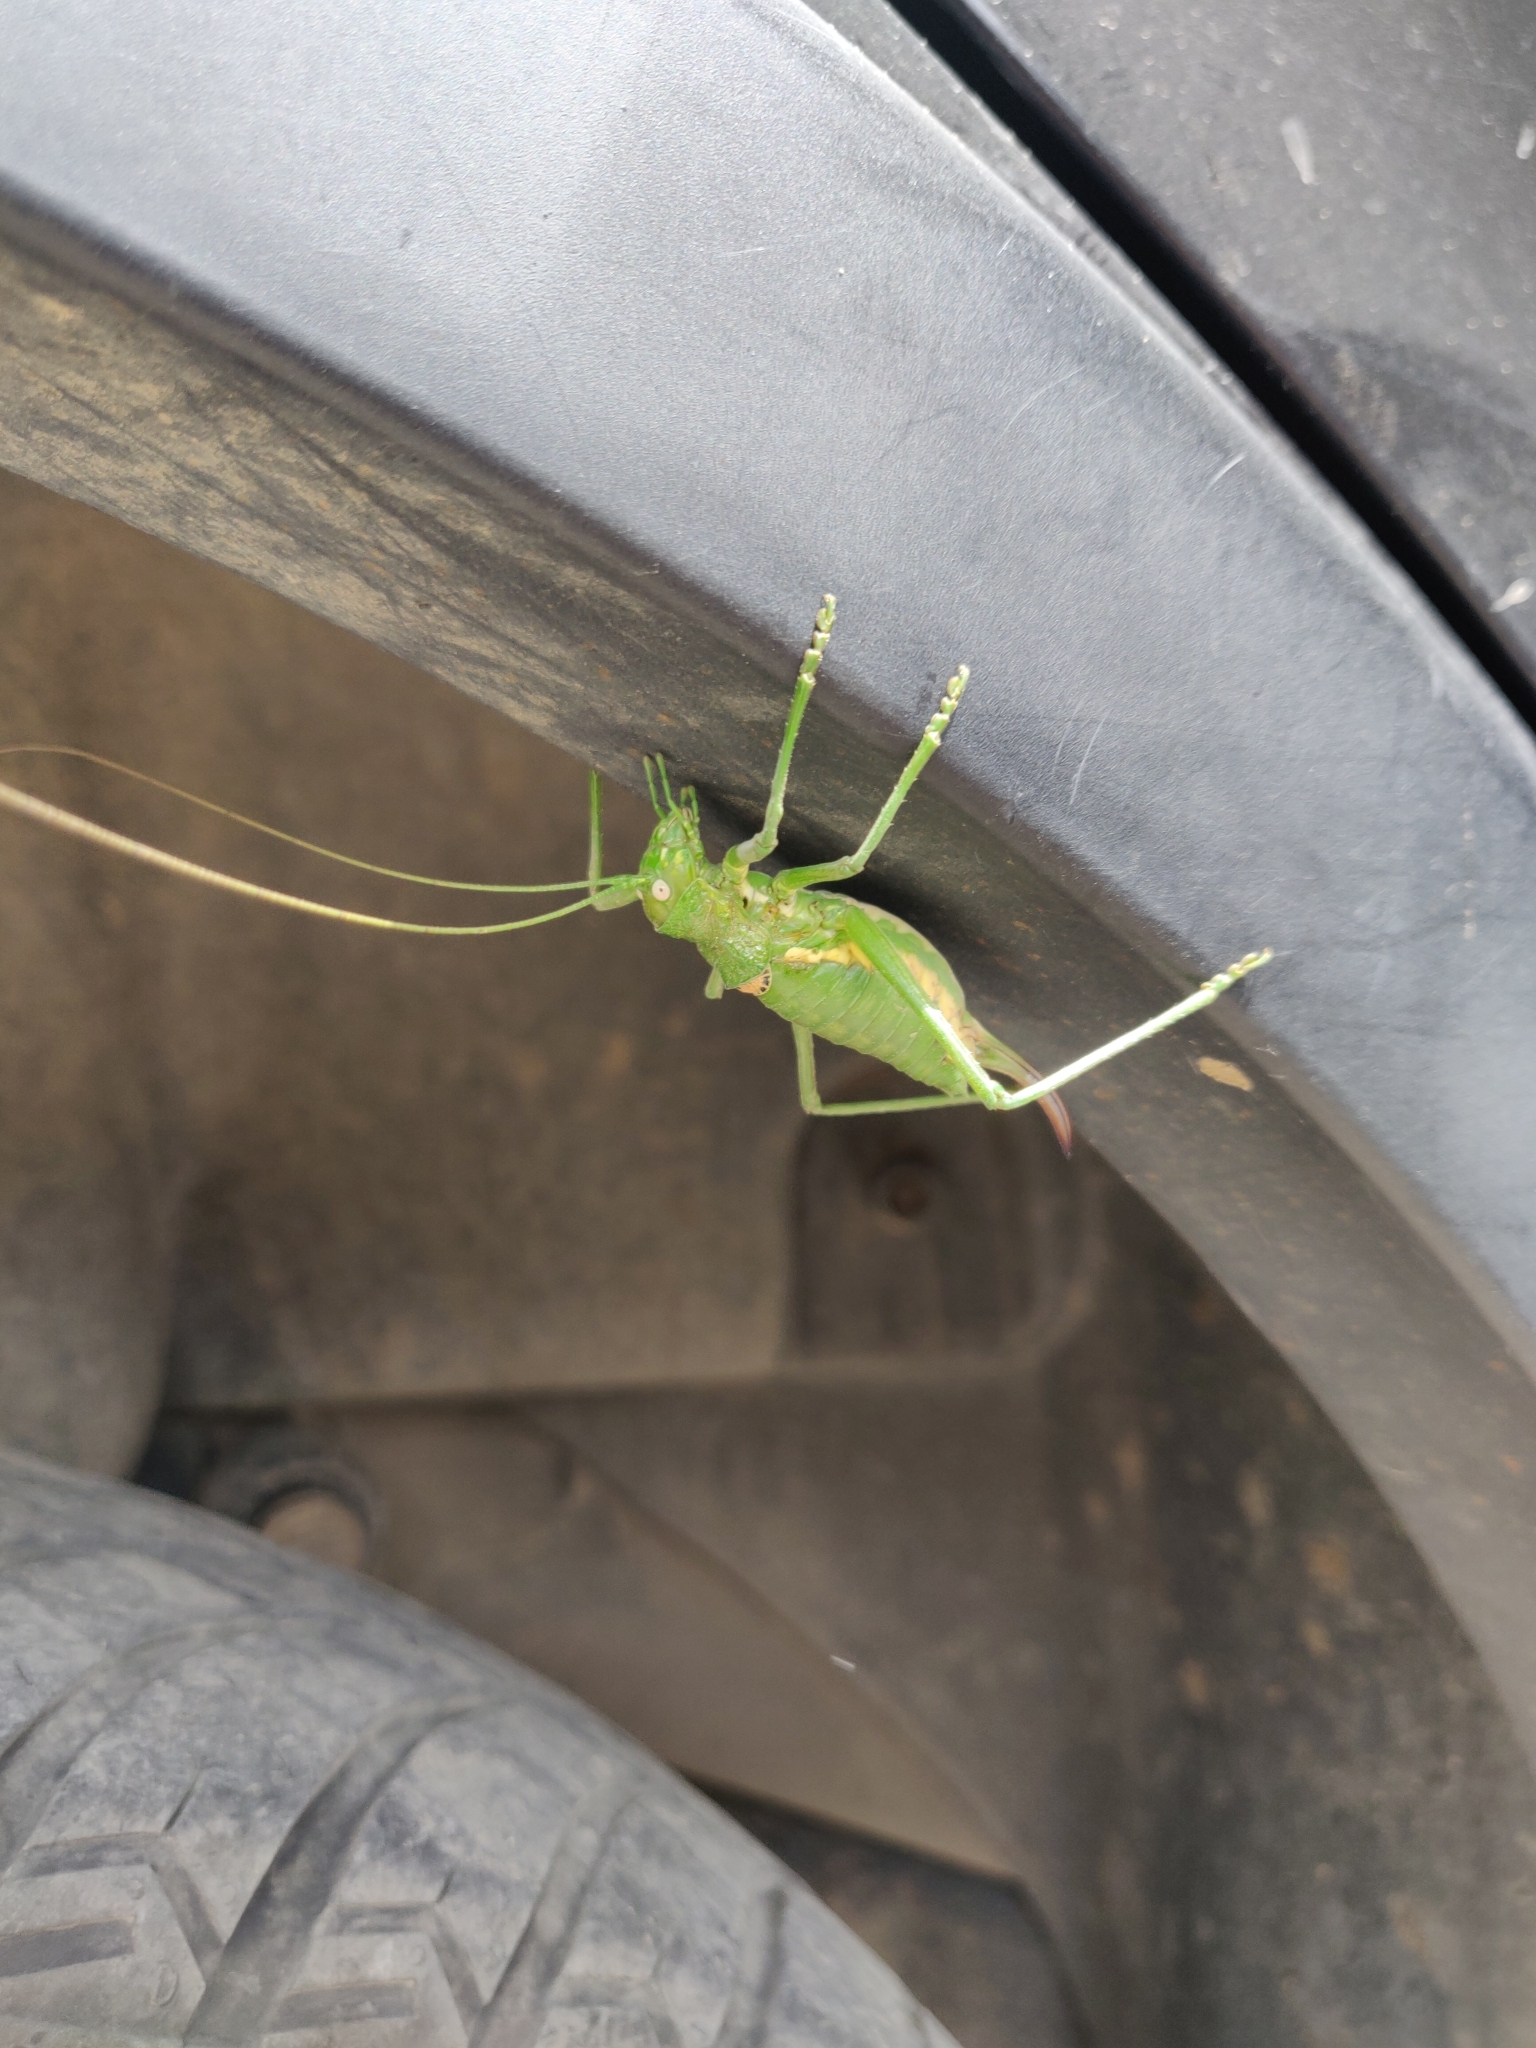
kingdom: Animalia
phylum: Arthropoda
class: Insecta
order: Orthoptera
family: Tettigoniidae
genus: Uromenus
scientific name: Uromenus brevicollis
